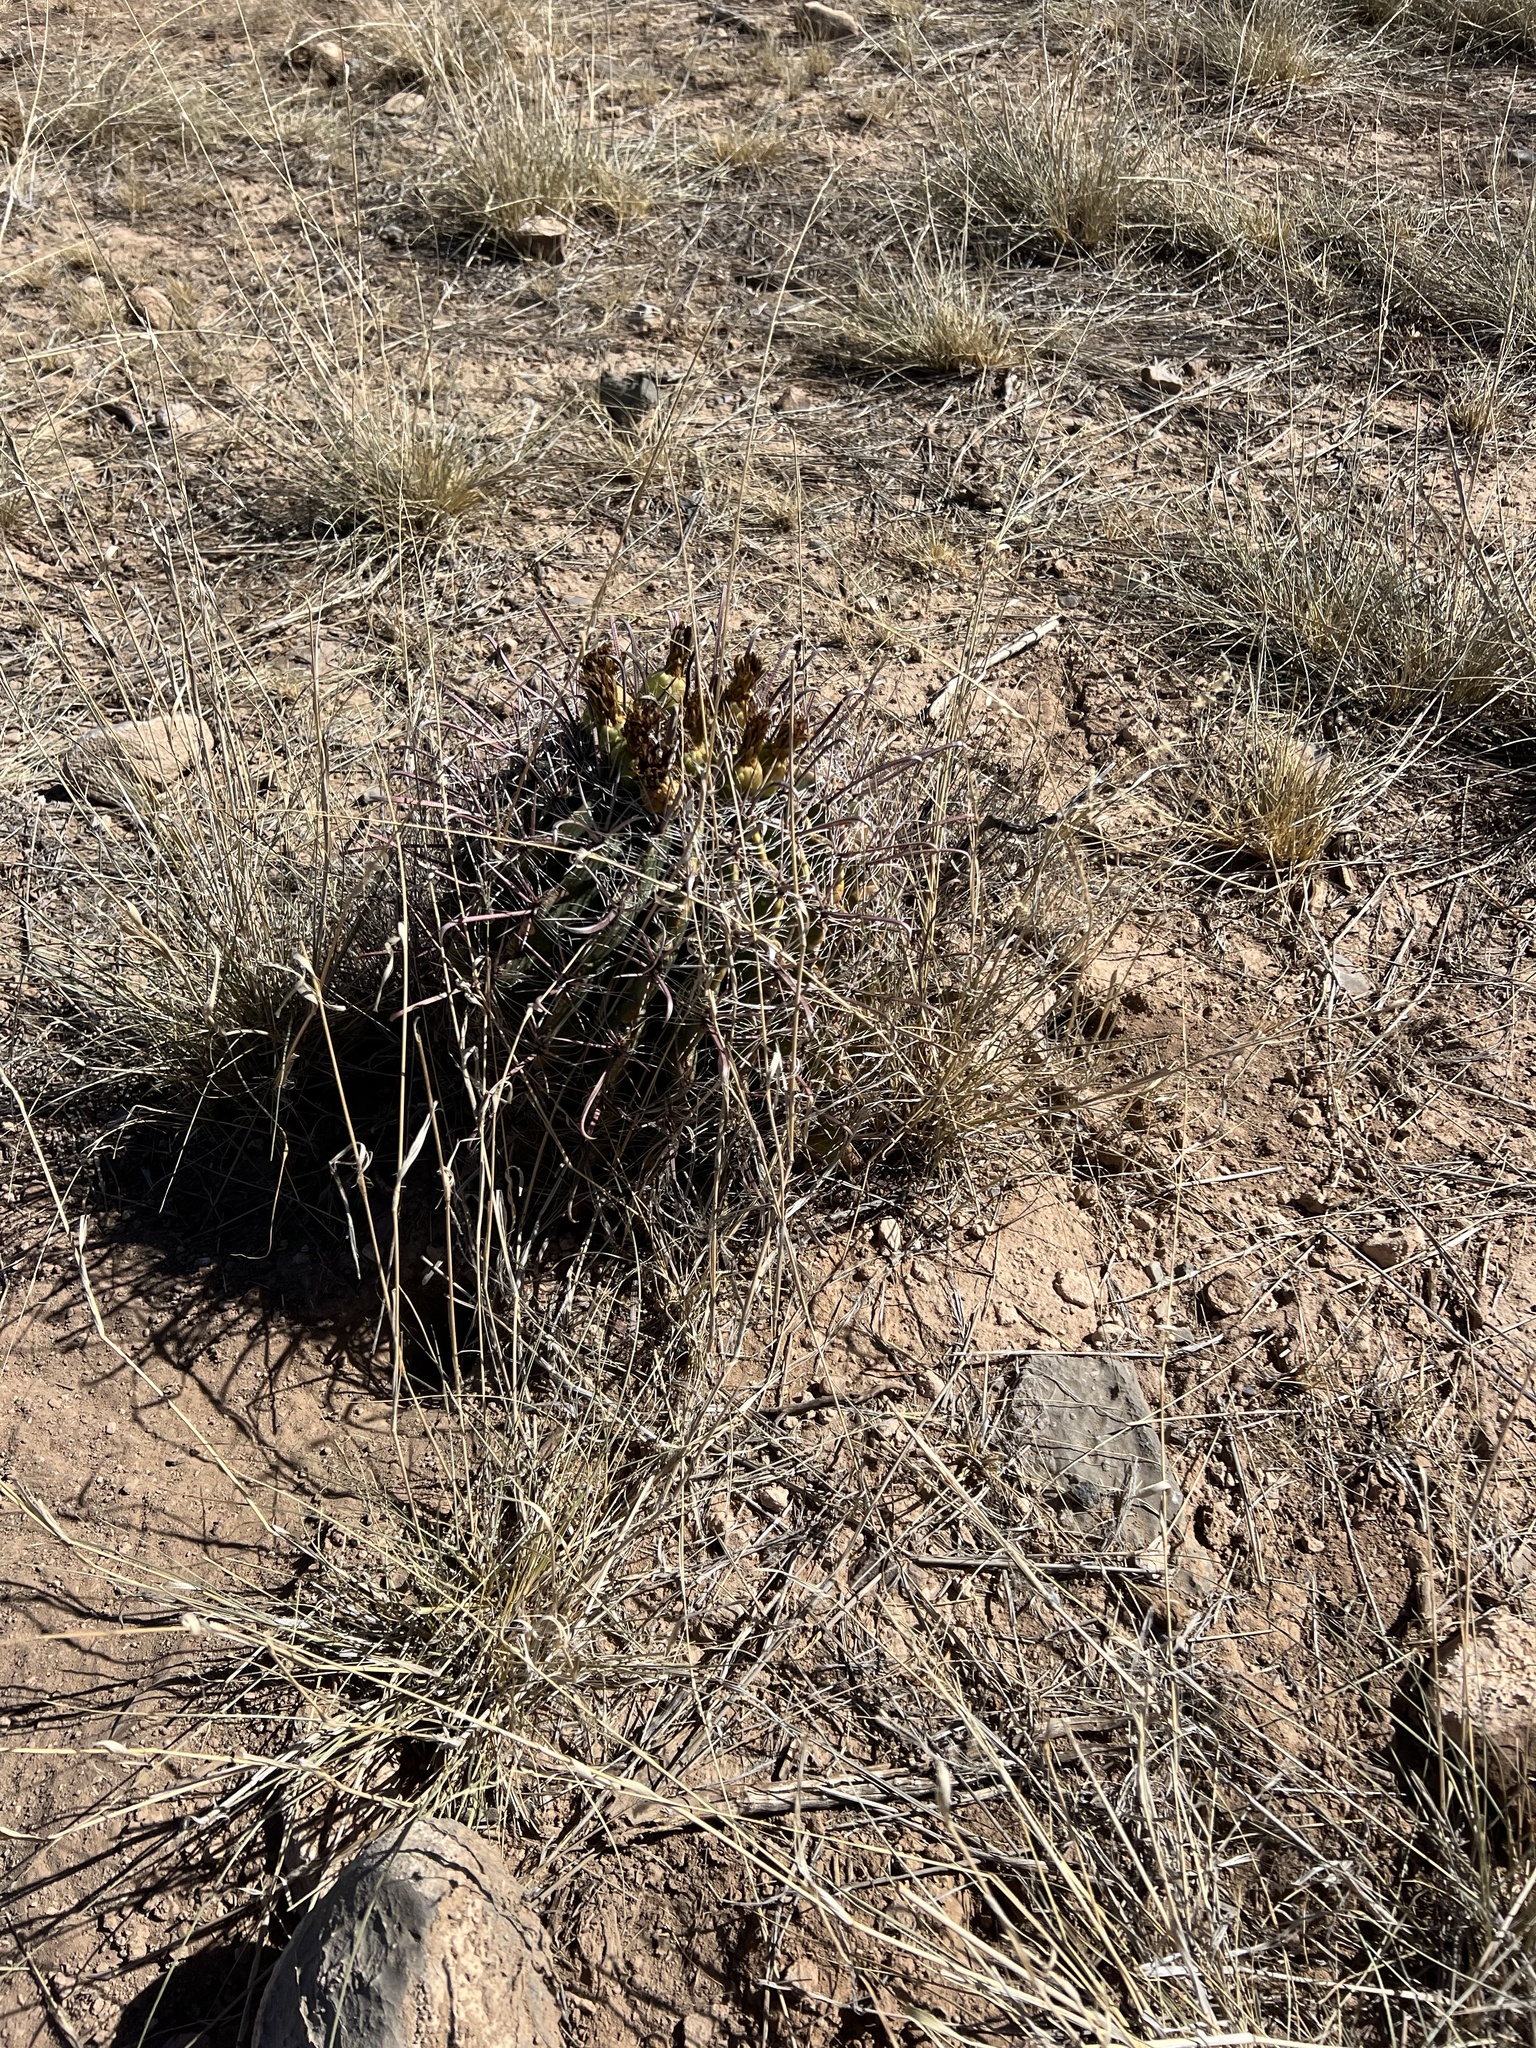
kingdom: Plantae
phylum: Tracheophyta
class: Magnoliopsida
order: Caryophyllales
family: Cactaceae
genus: Ferocactus
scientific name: Ferocactus wislizeni
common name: Candy barrel cactus
